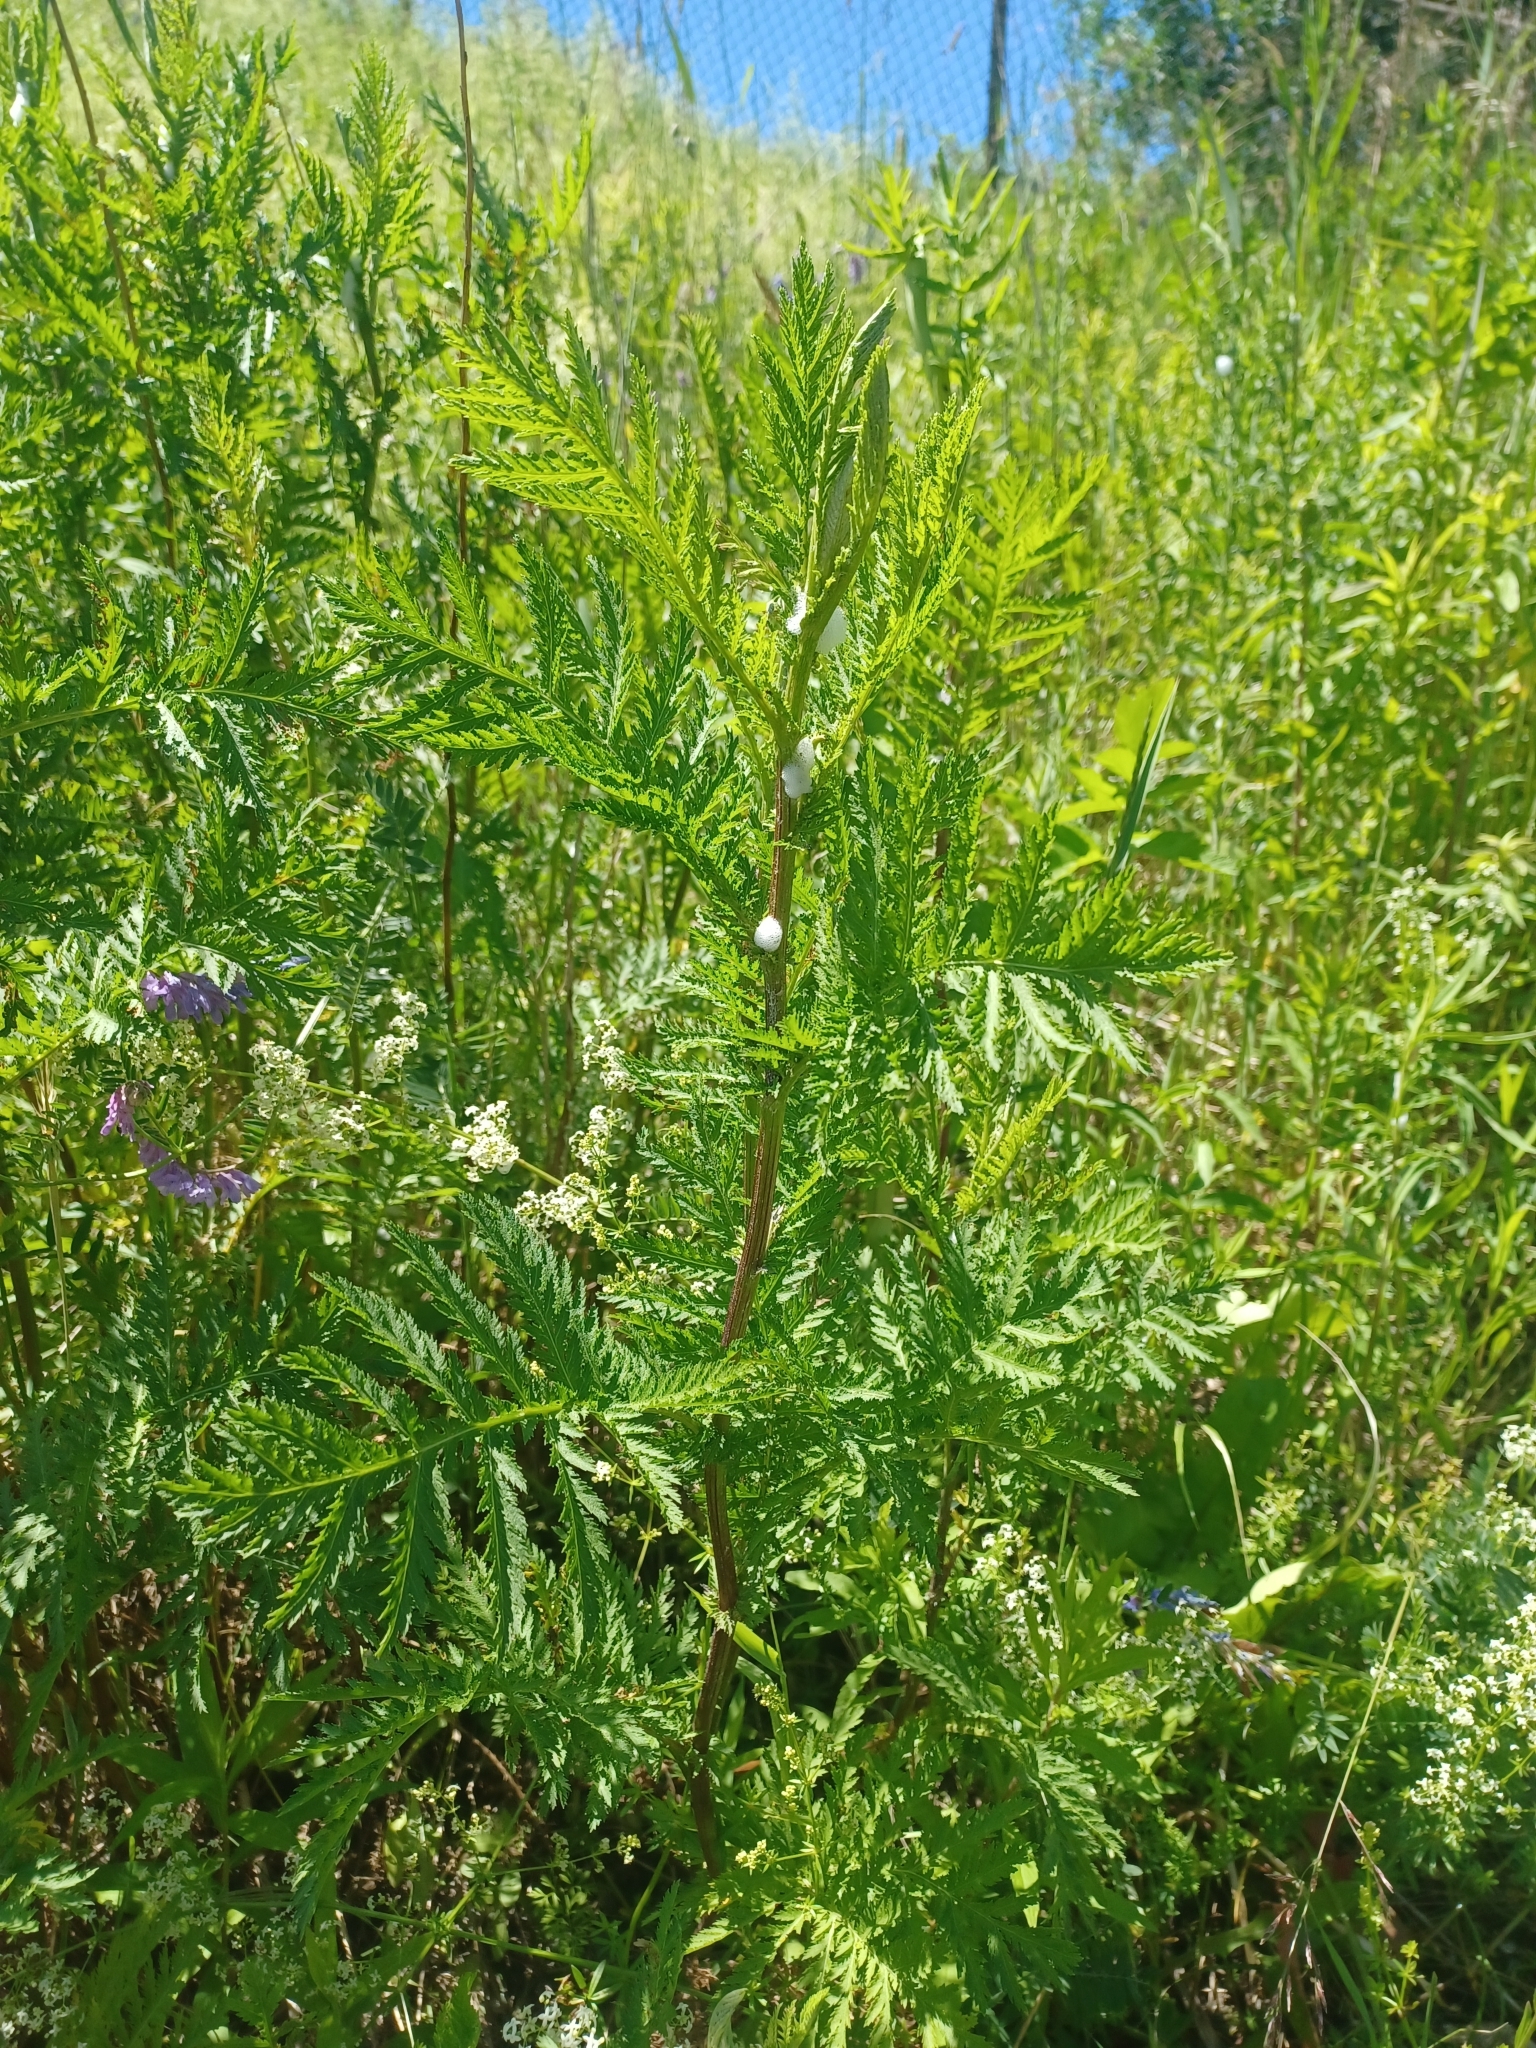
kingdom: Plantae
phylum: Tracheophyta
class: Magnoliopsida
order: Asterales
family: Asteraceae
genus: Tanacetum
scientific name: Tanacetum vulgare
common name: Common tansy
